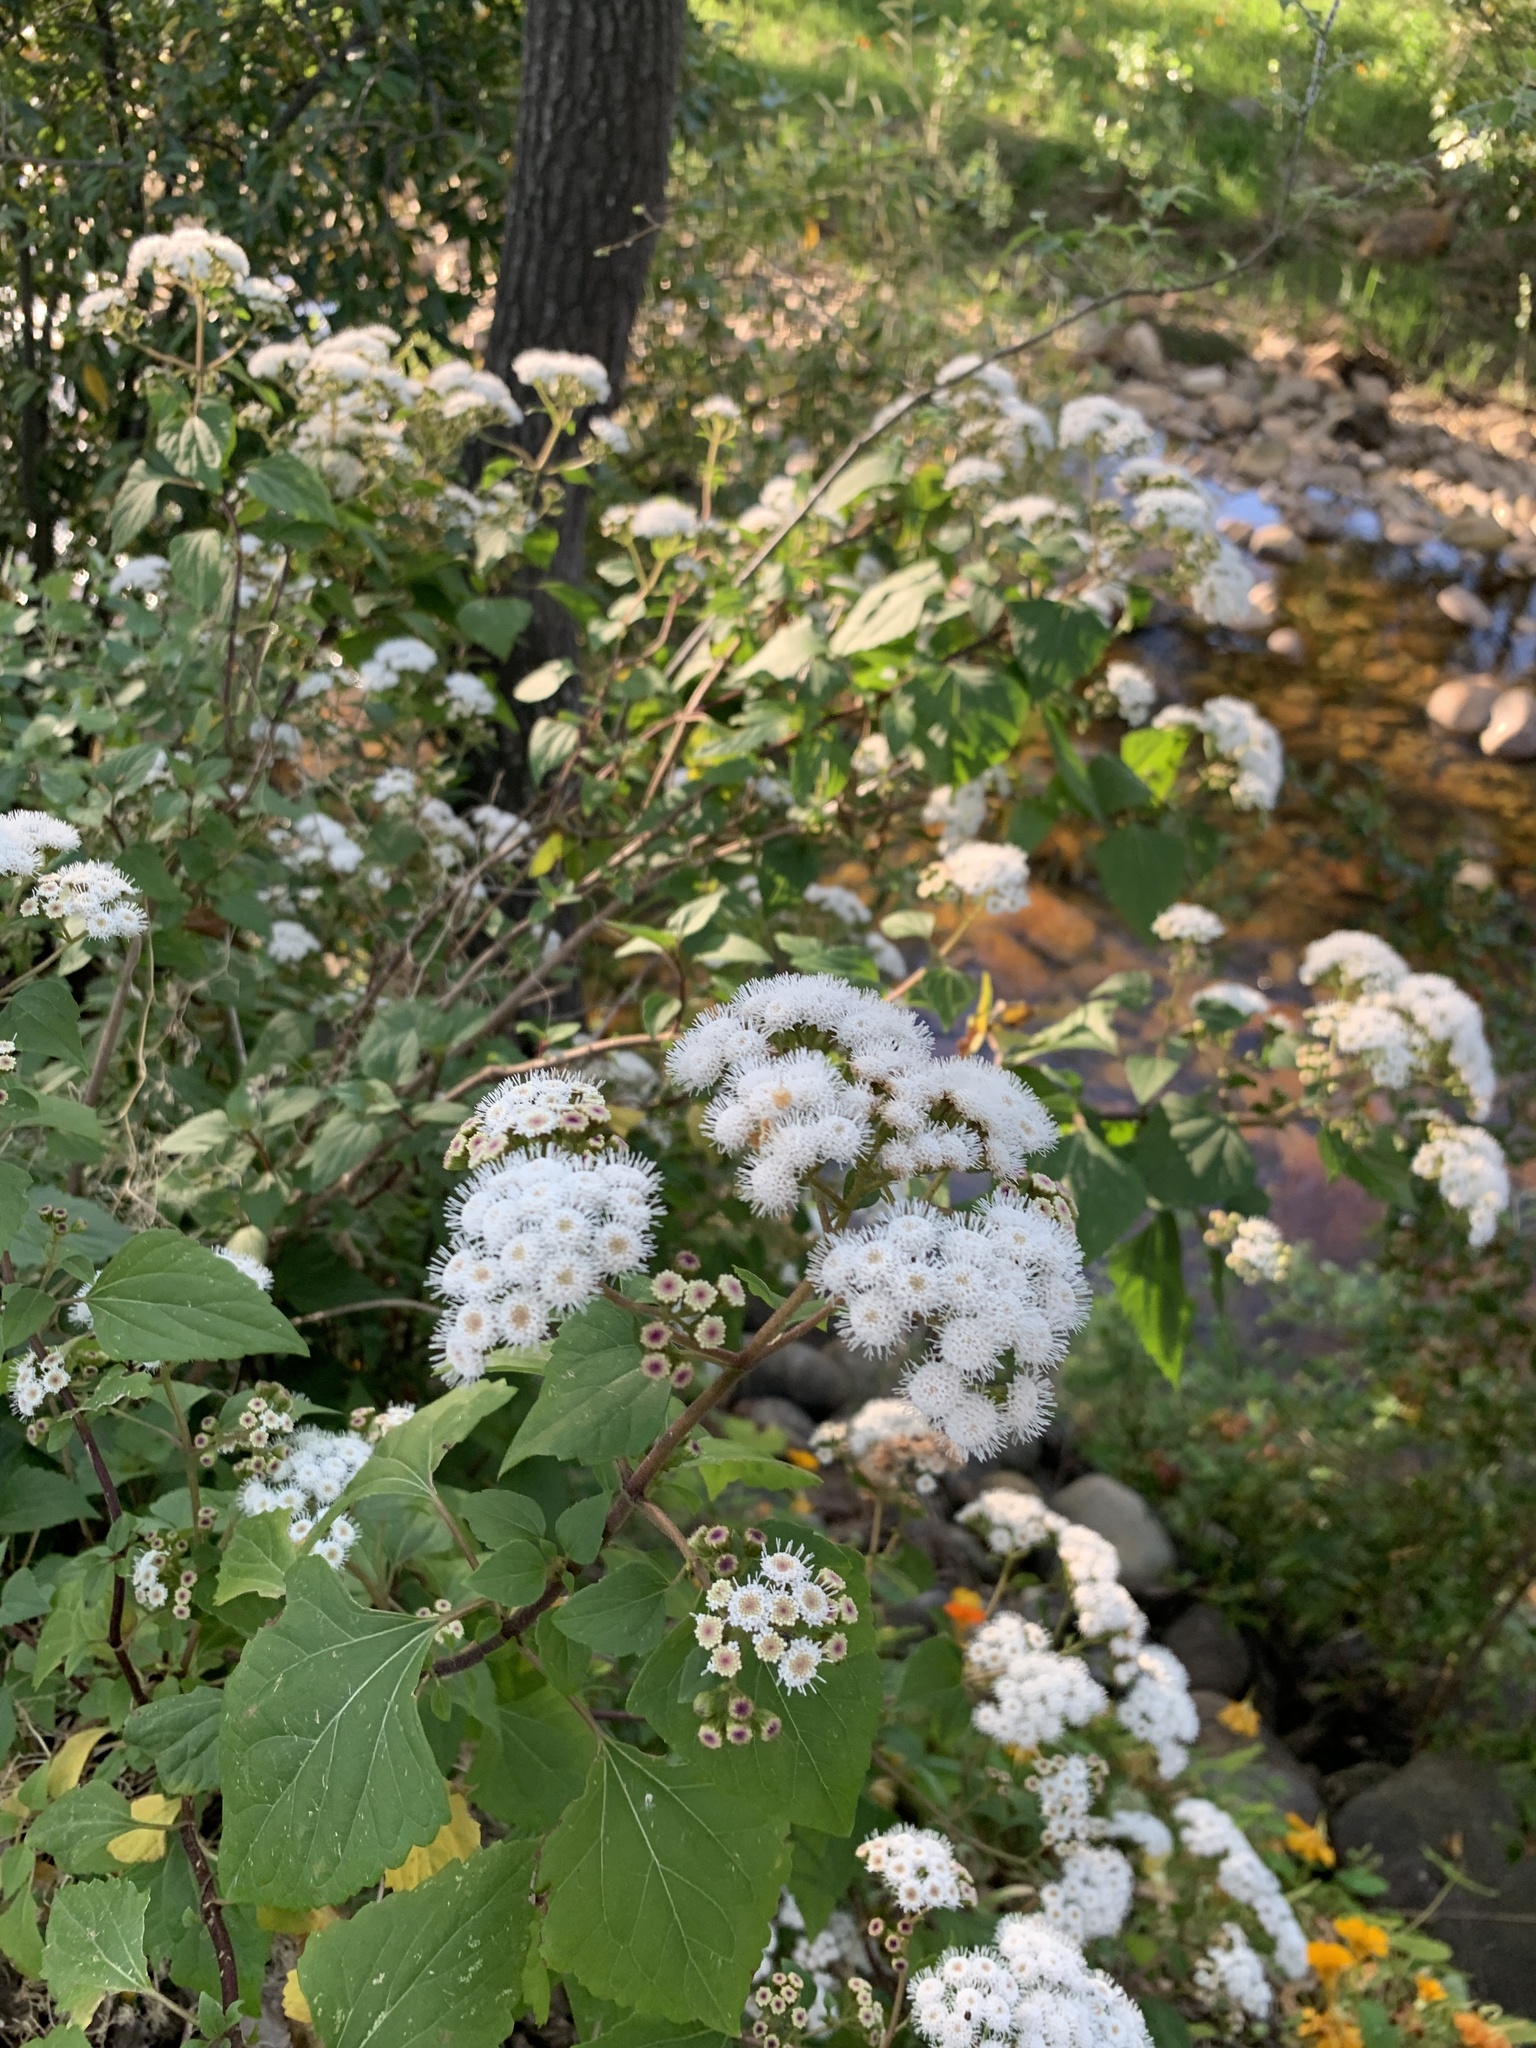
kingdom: Plantae
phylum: Tracheophyta
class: Magnoliopsida
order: Asterales
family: Asteraceae
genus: Ageratina
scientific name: Ageratina adenophora
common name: Sticky snakeroot
